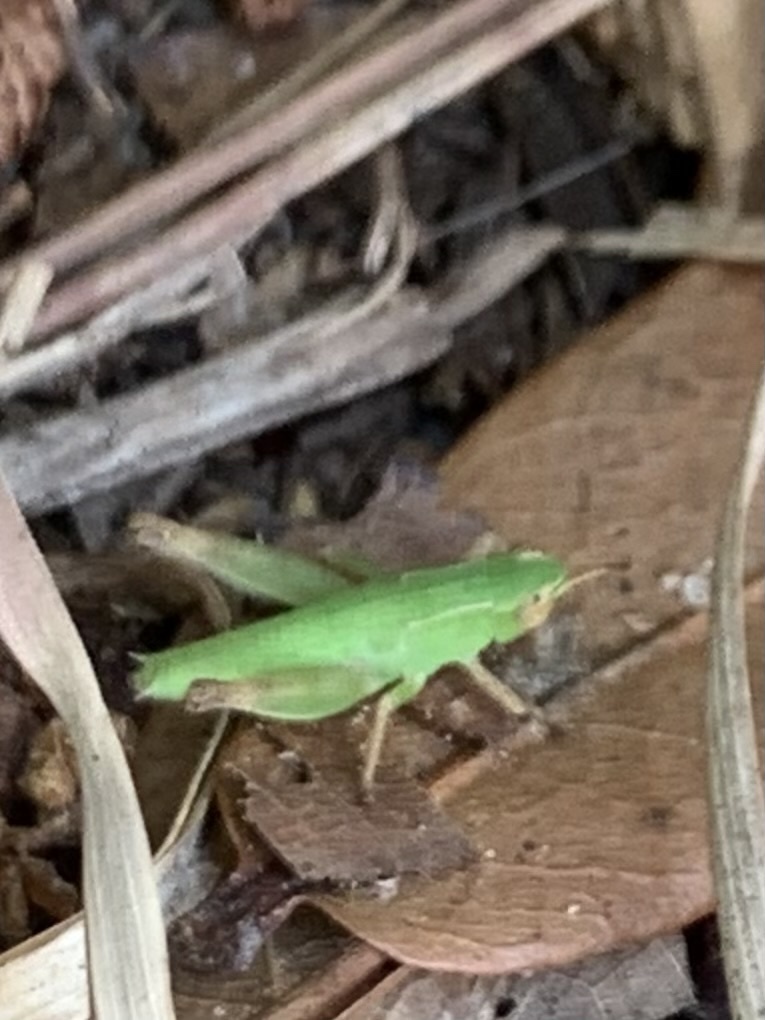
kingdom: Animalia
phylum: Arthropoda
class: Insecta
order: Orthoptera
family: Acrididae
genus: Dichromorpha
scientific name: Dichromorpha viridis
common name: Short-winged green grasshopper
